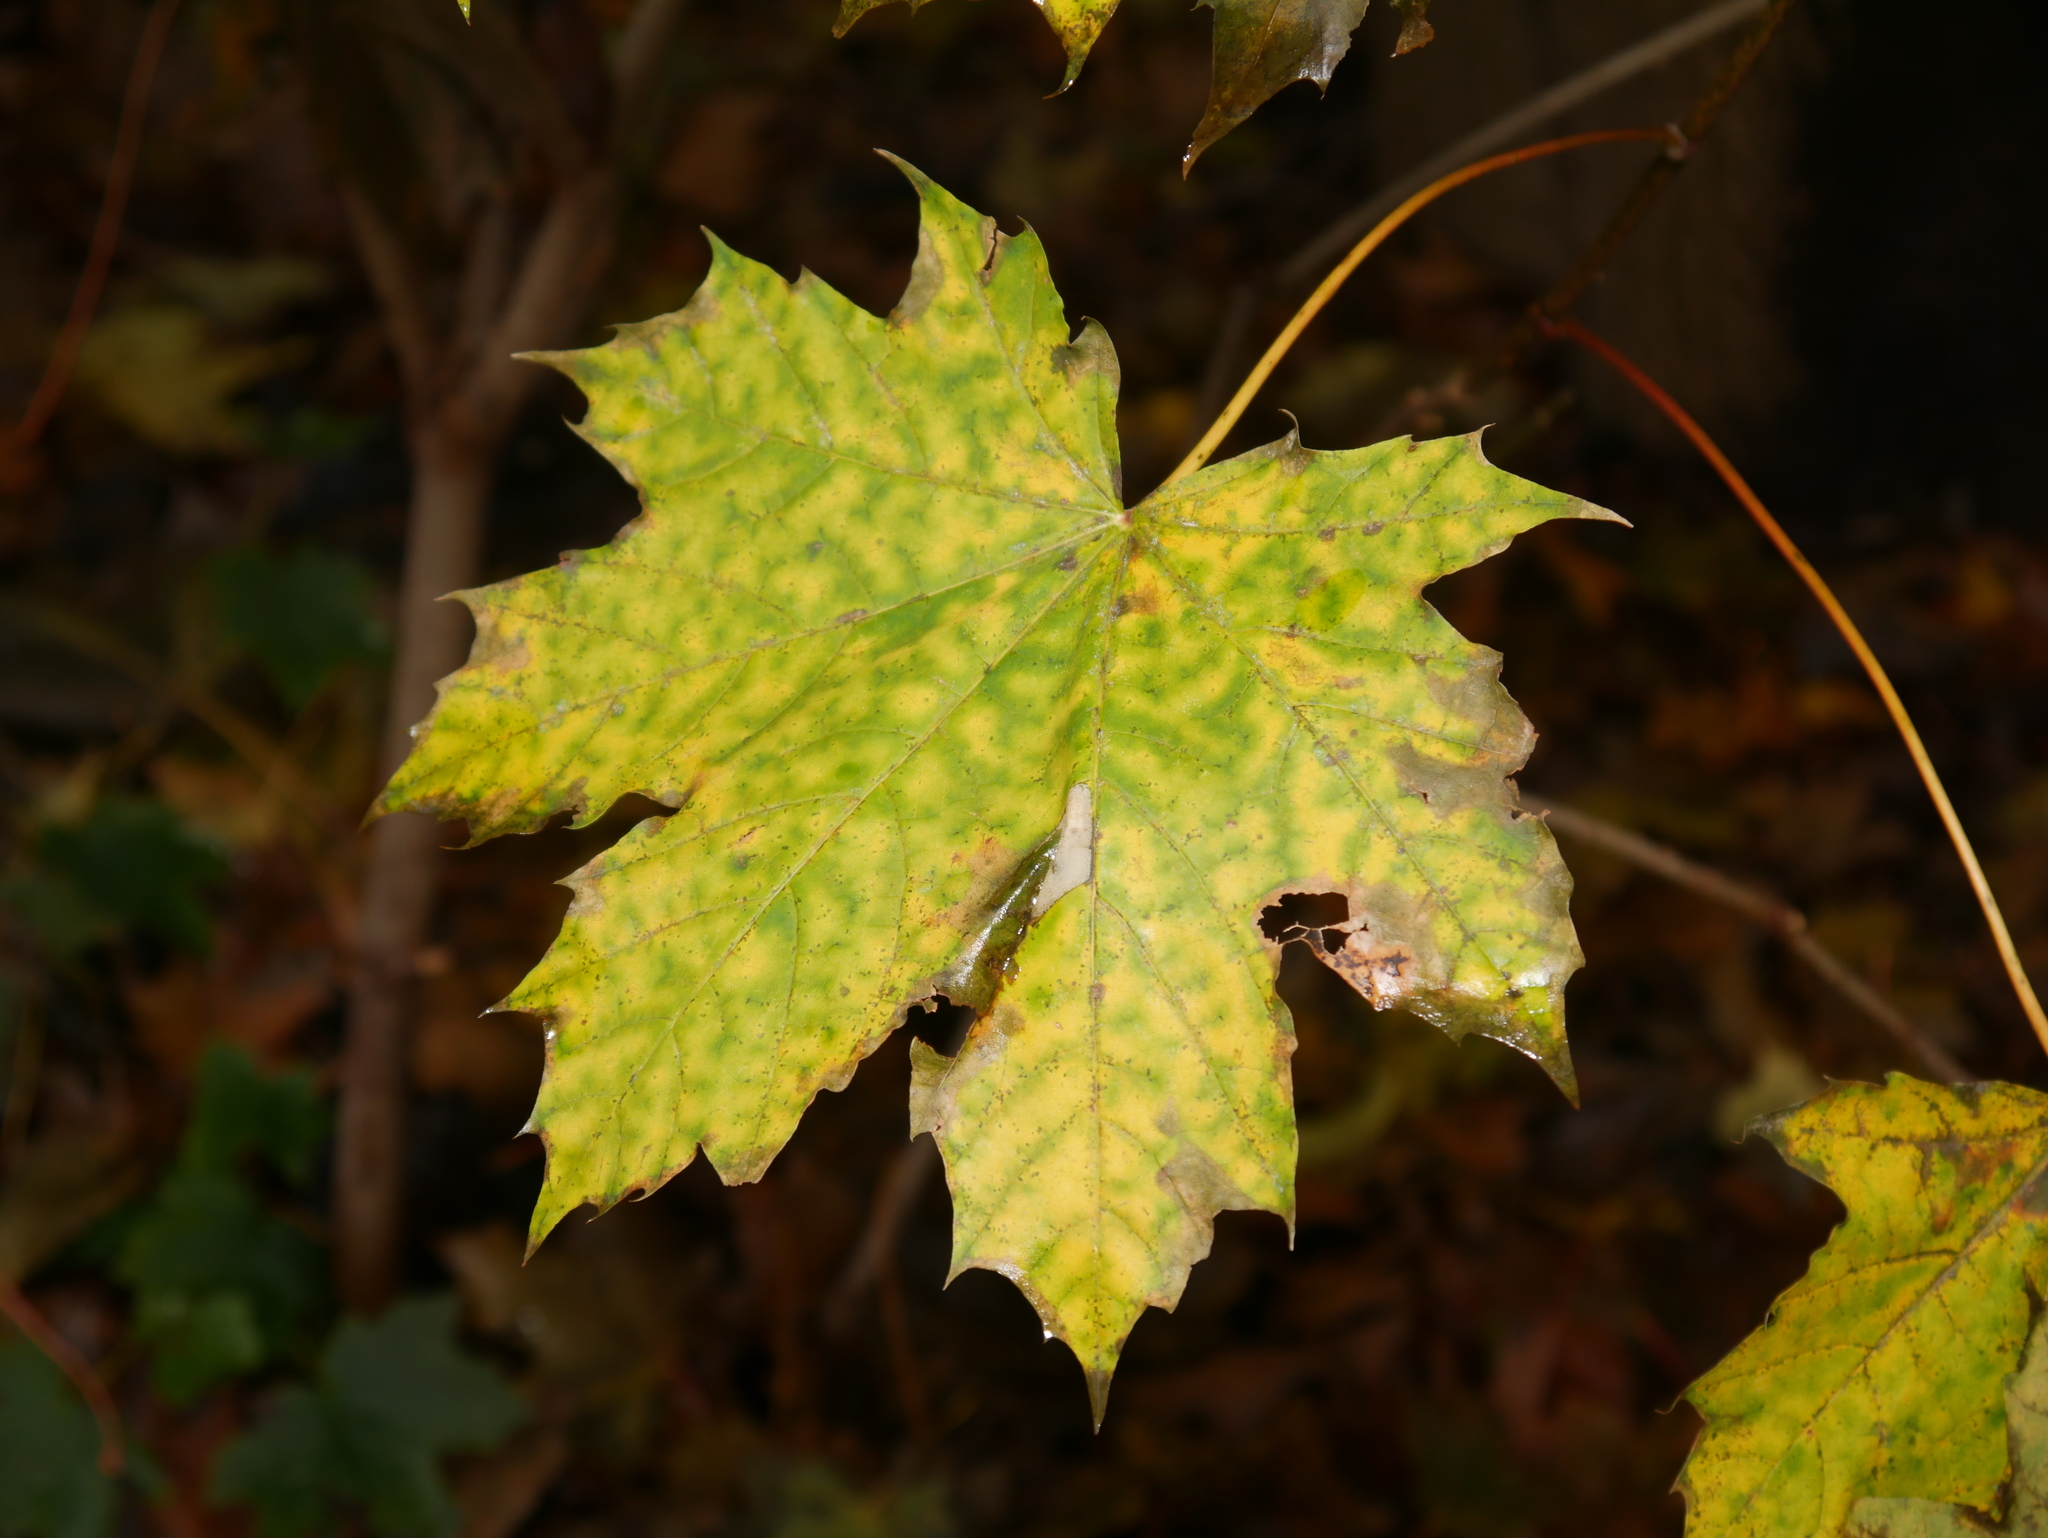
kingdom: Plantae
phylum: Tracheophyta
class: Magnoliopsida
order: Sapindales
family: Sapindaceae
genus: Acer
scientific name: Acer platanoides
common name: Norway maple
